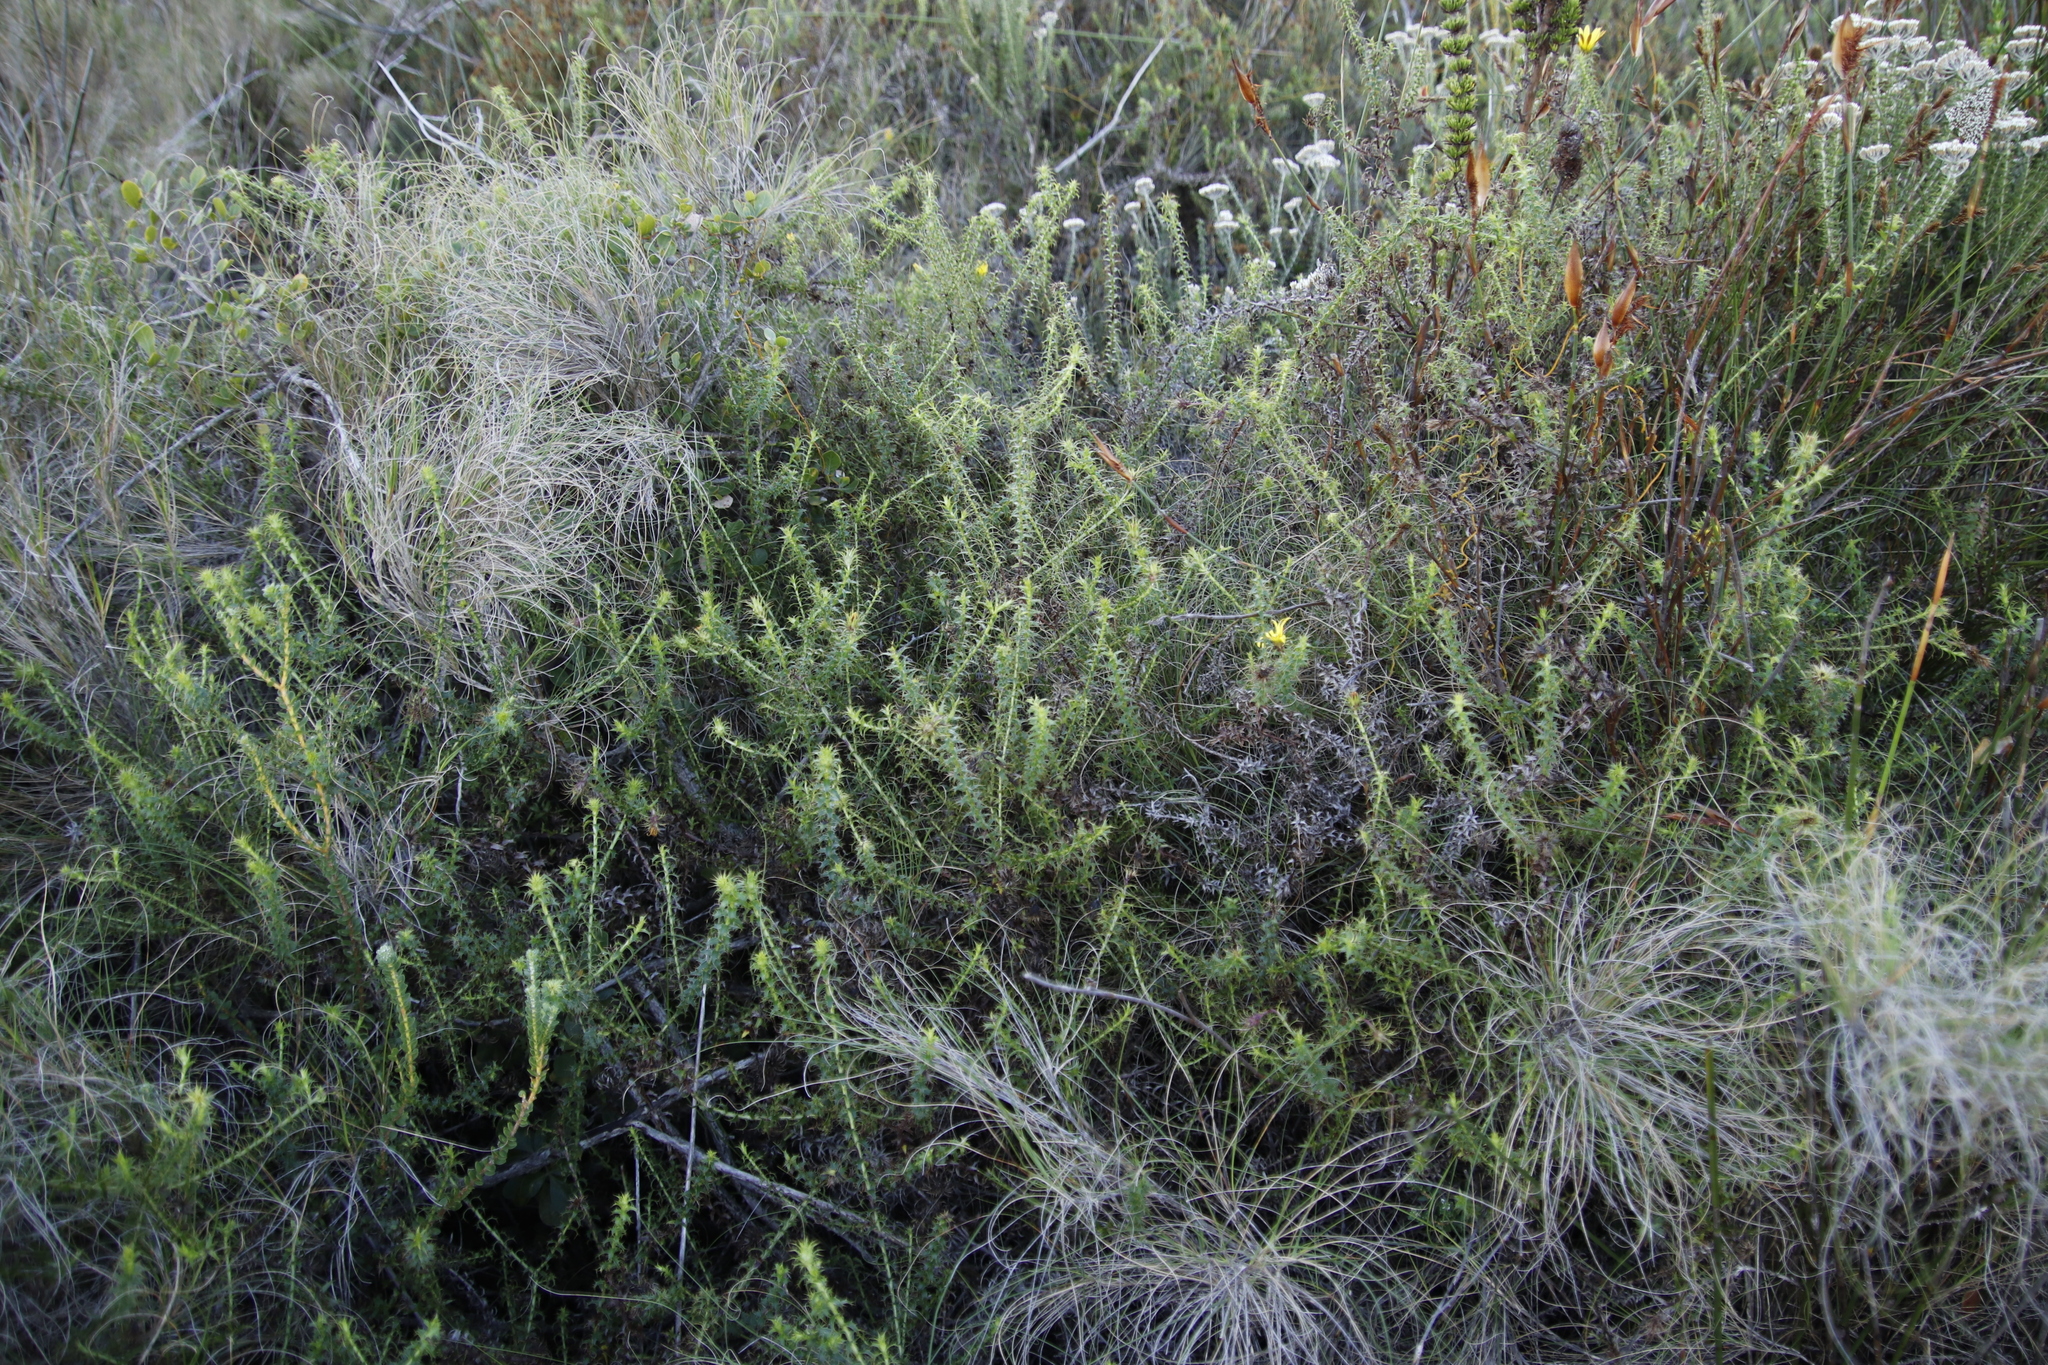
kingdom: Plantae
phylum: Tracheophyta
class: Magnoliopsida
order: Asterales
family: Asteraceae
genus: Cullumia
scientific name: Cullumia setosa
